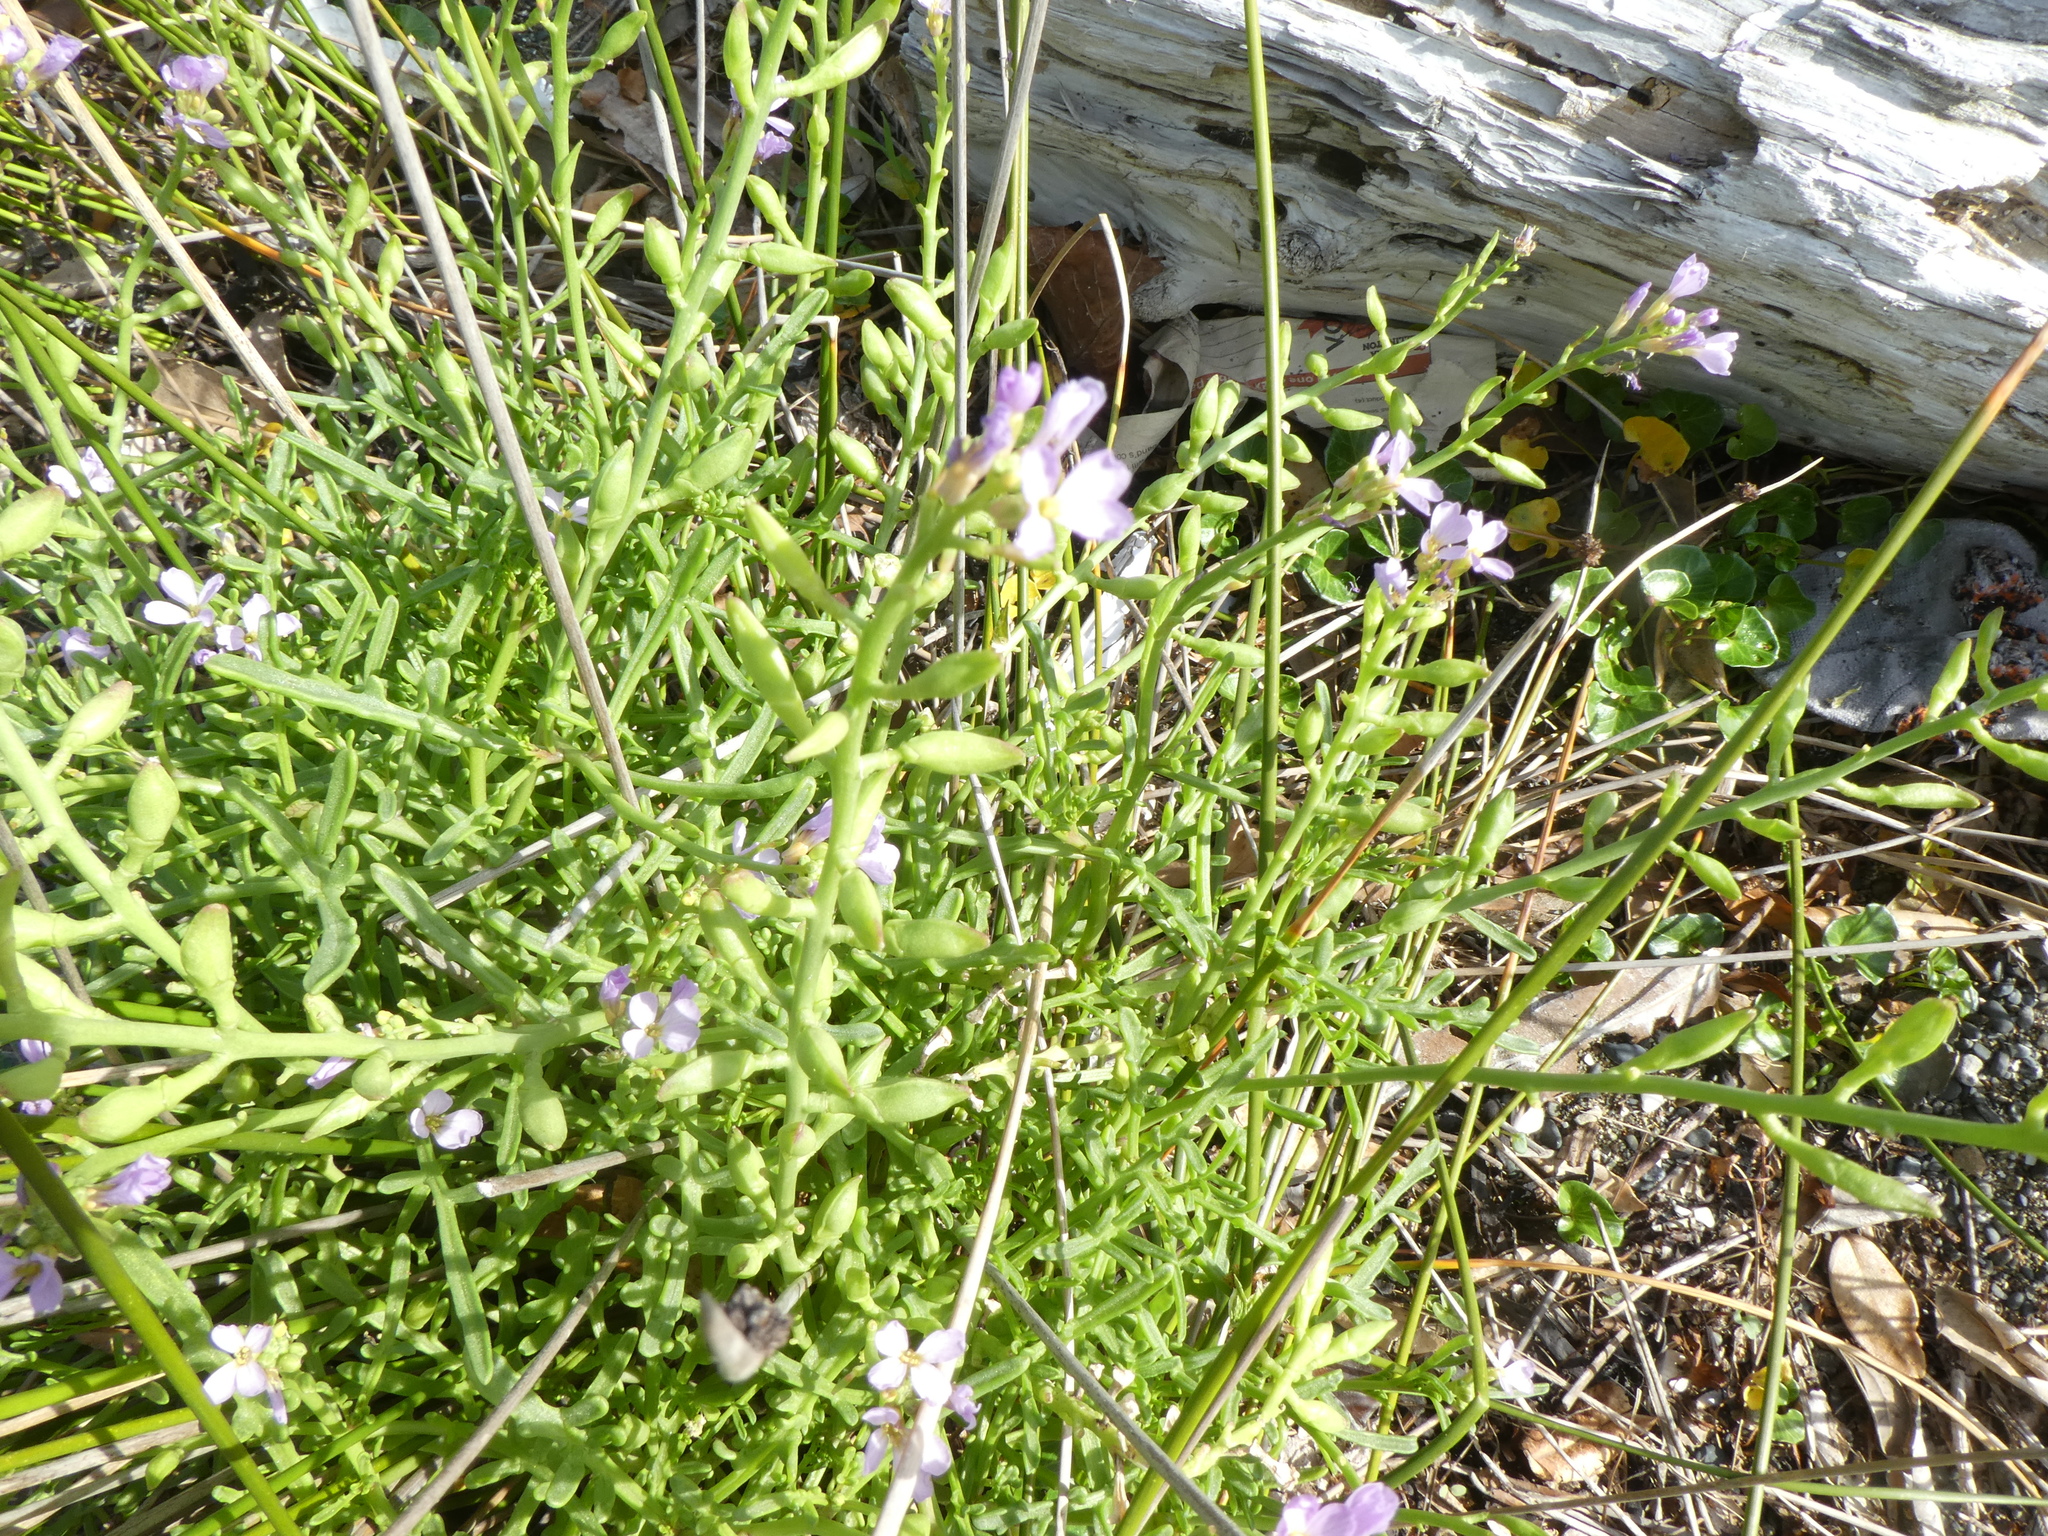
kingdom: Plantae
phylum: Tracheophyta
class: Magnoliopsida
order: Brassicales
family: Brassicaceae
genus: Cakile
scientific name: Cakile maritima
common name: Sea rocket
